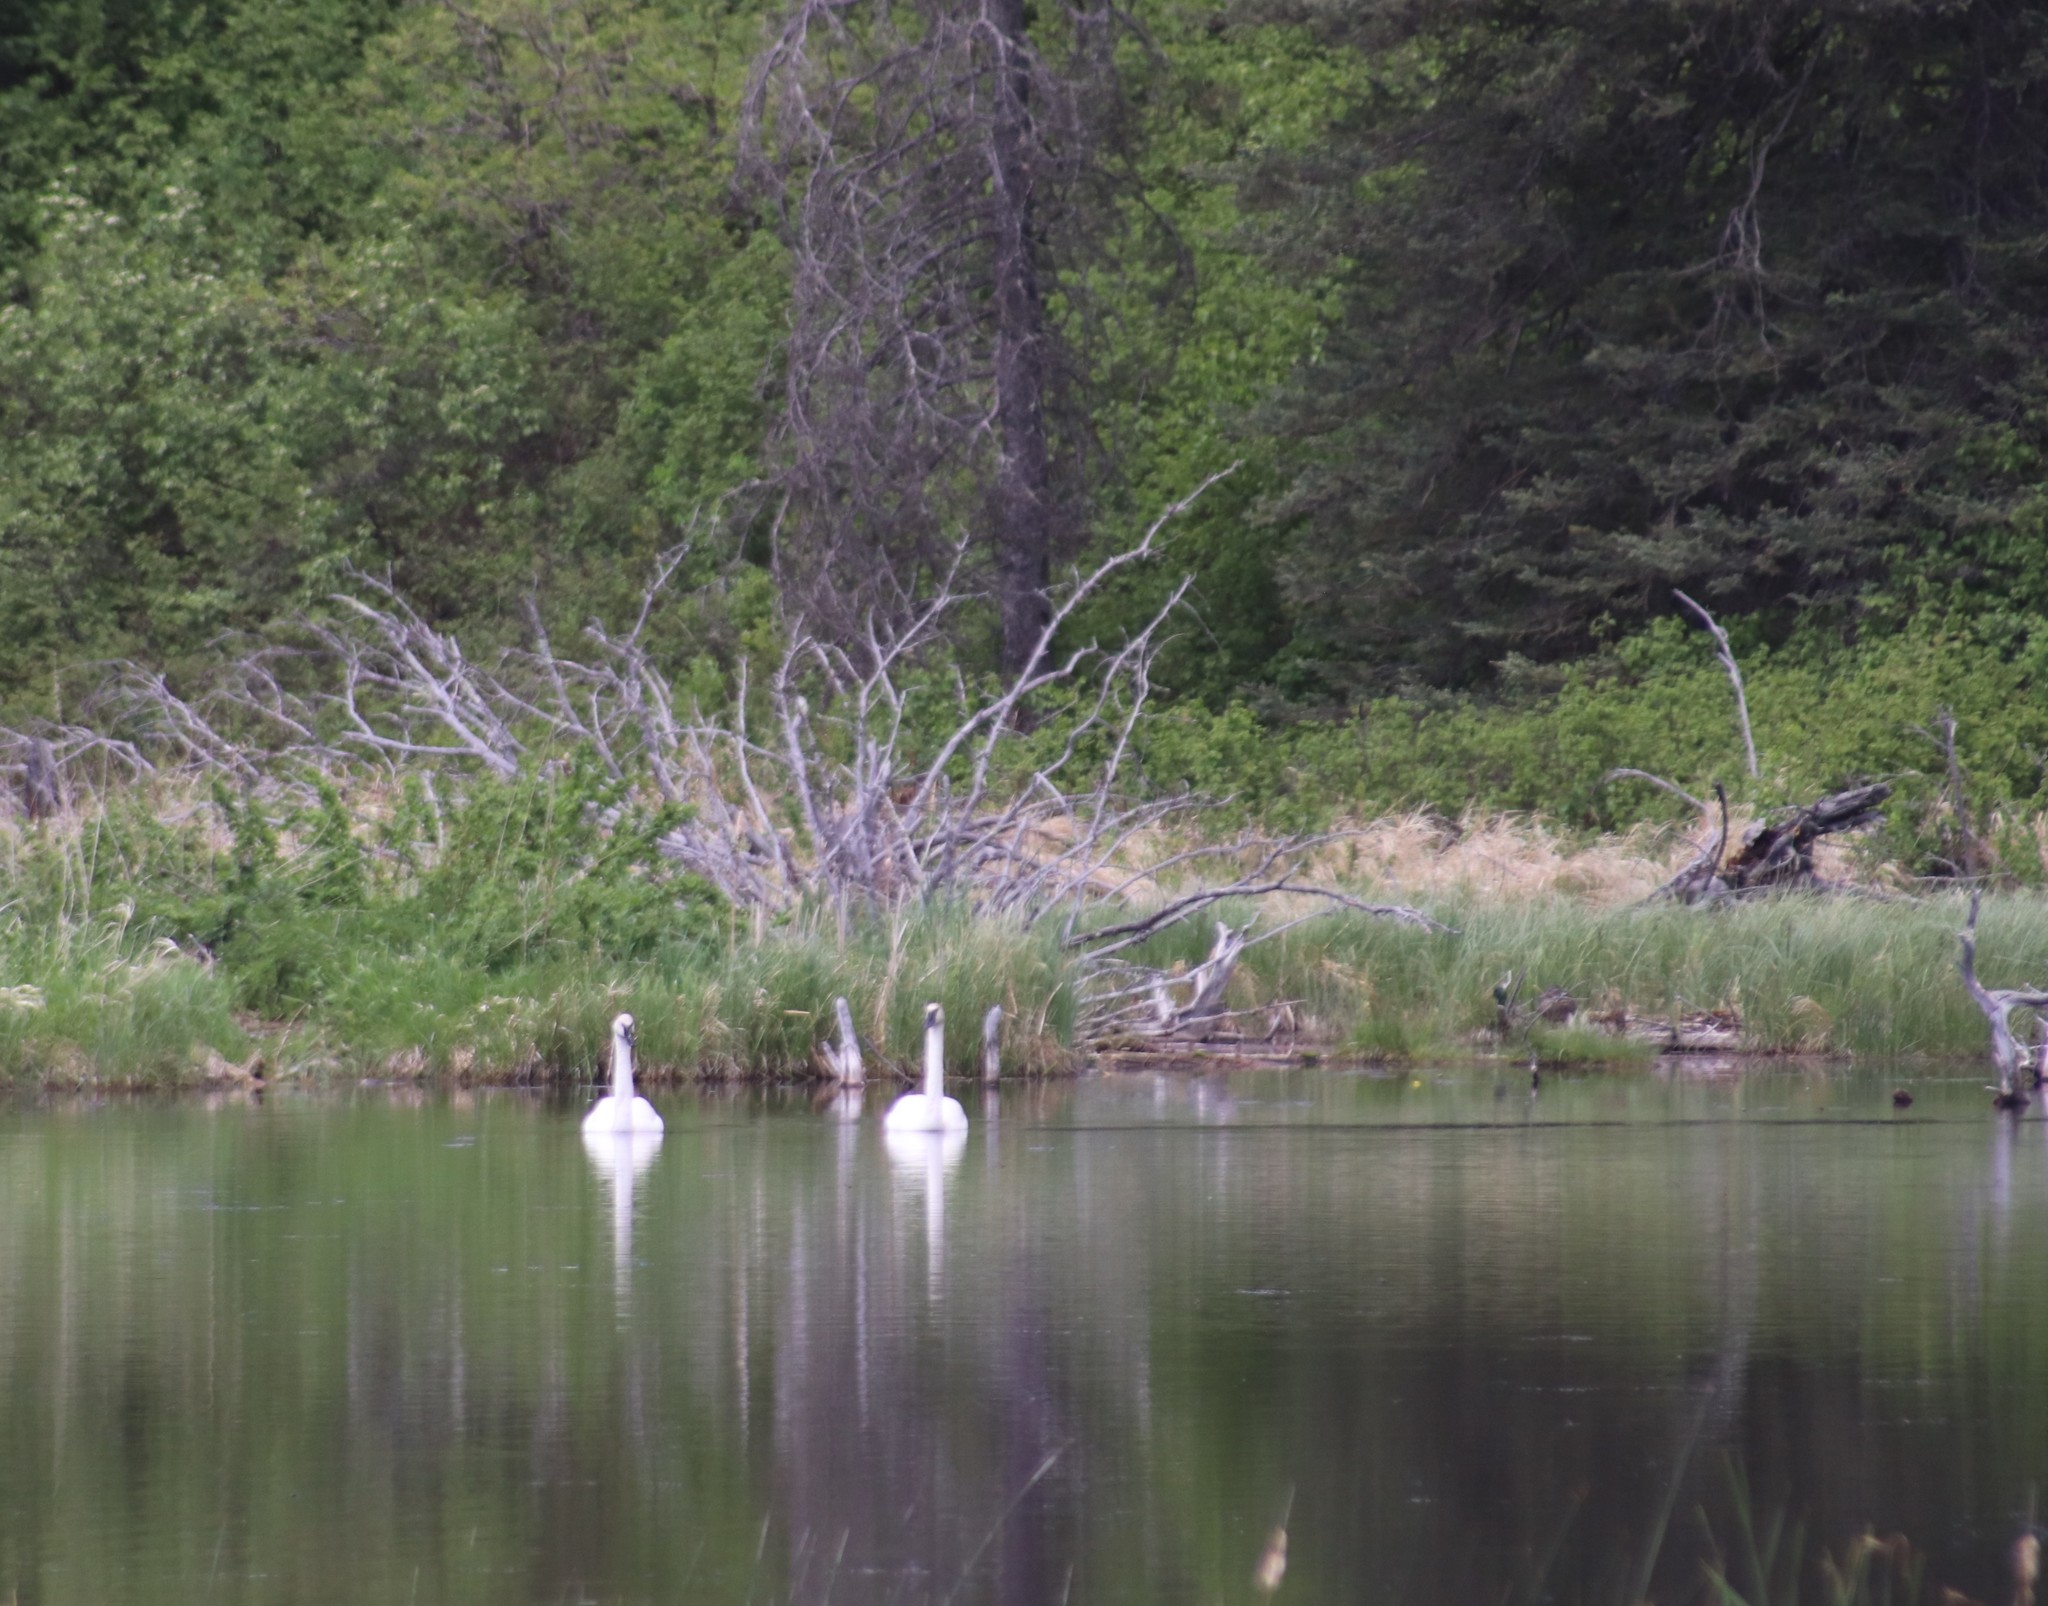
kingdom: Animalia
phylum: Chordata
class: Aves
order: Anseriformes
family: Anatidae
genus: Cygnus
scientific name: Cygnus buccinator
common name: Trumpeter swan
